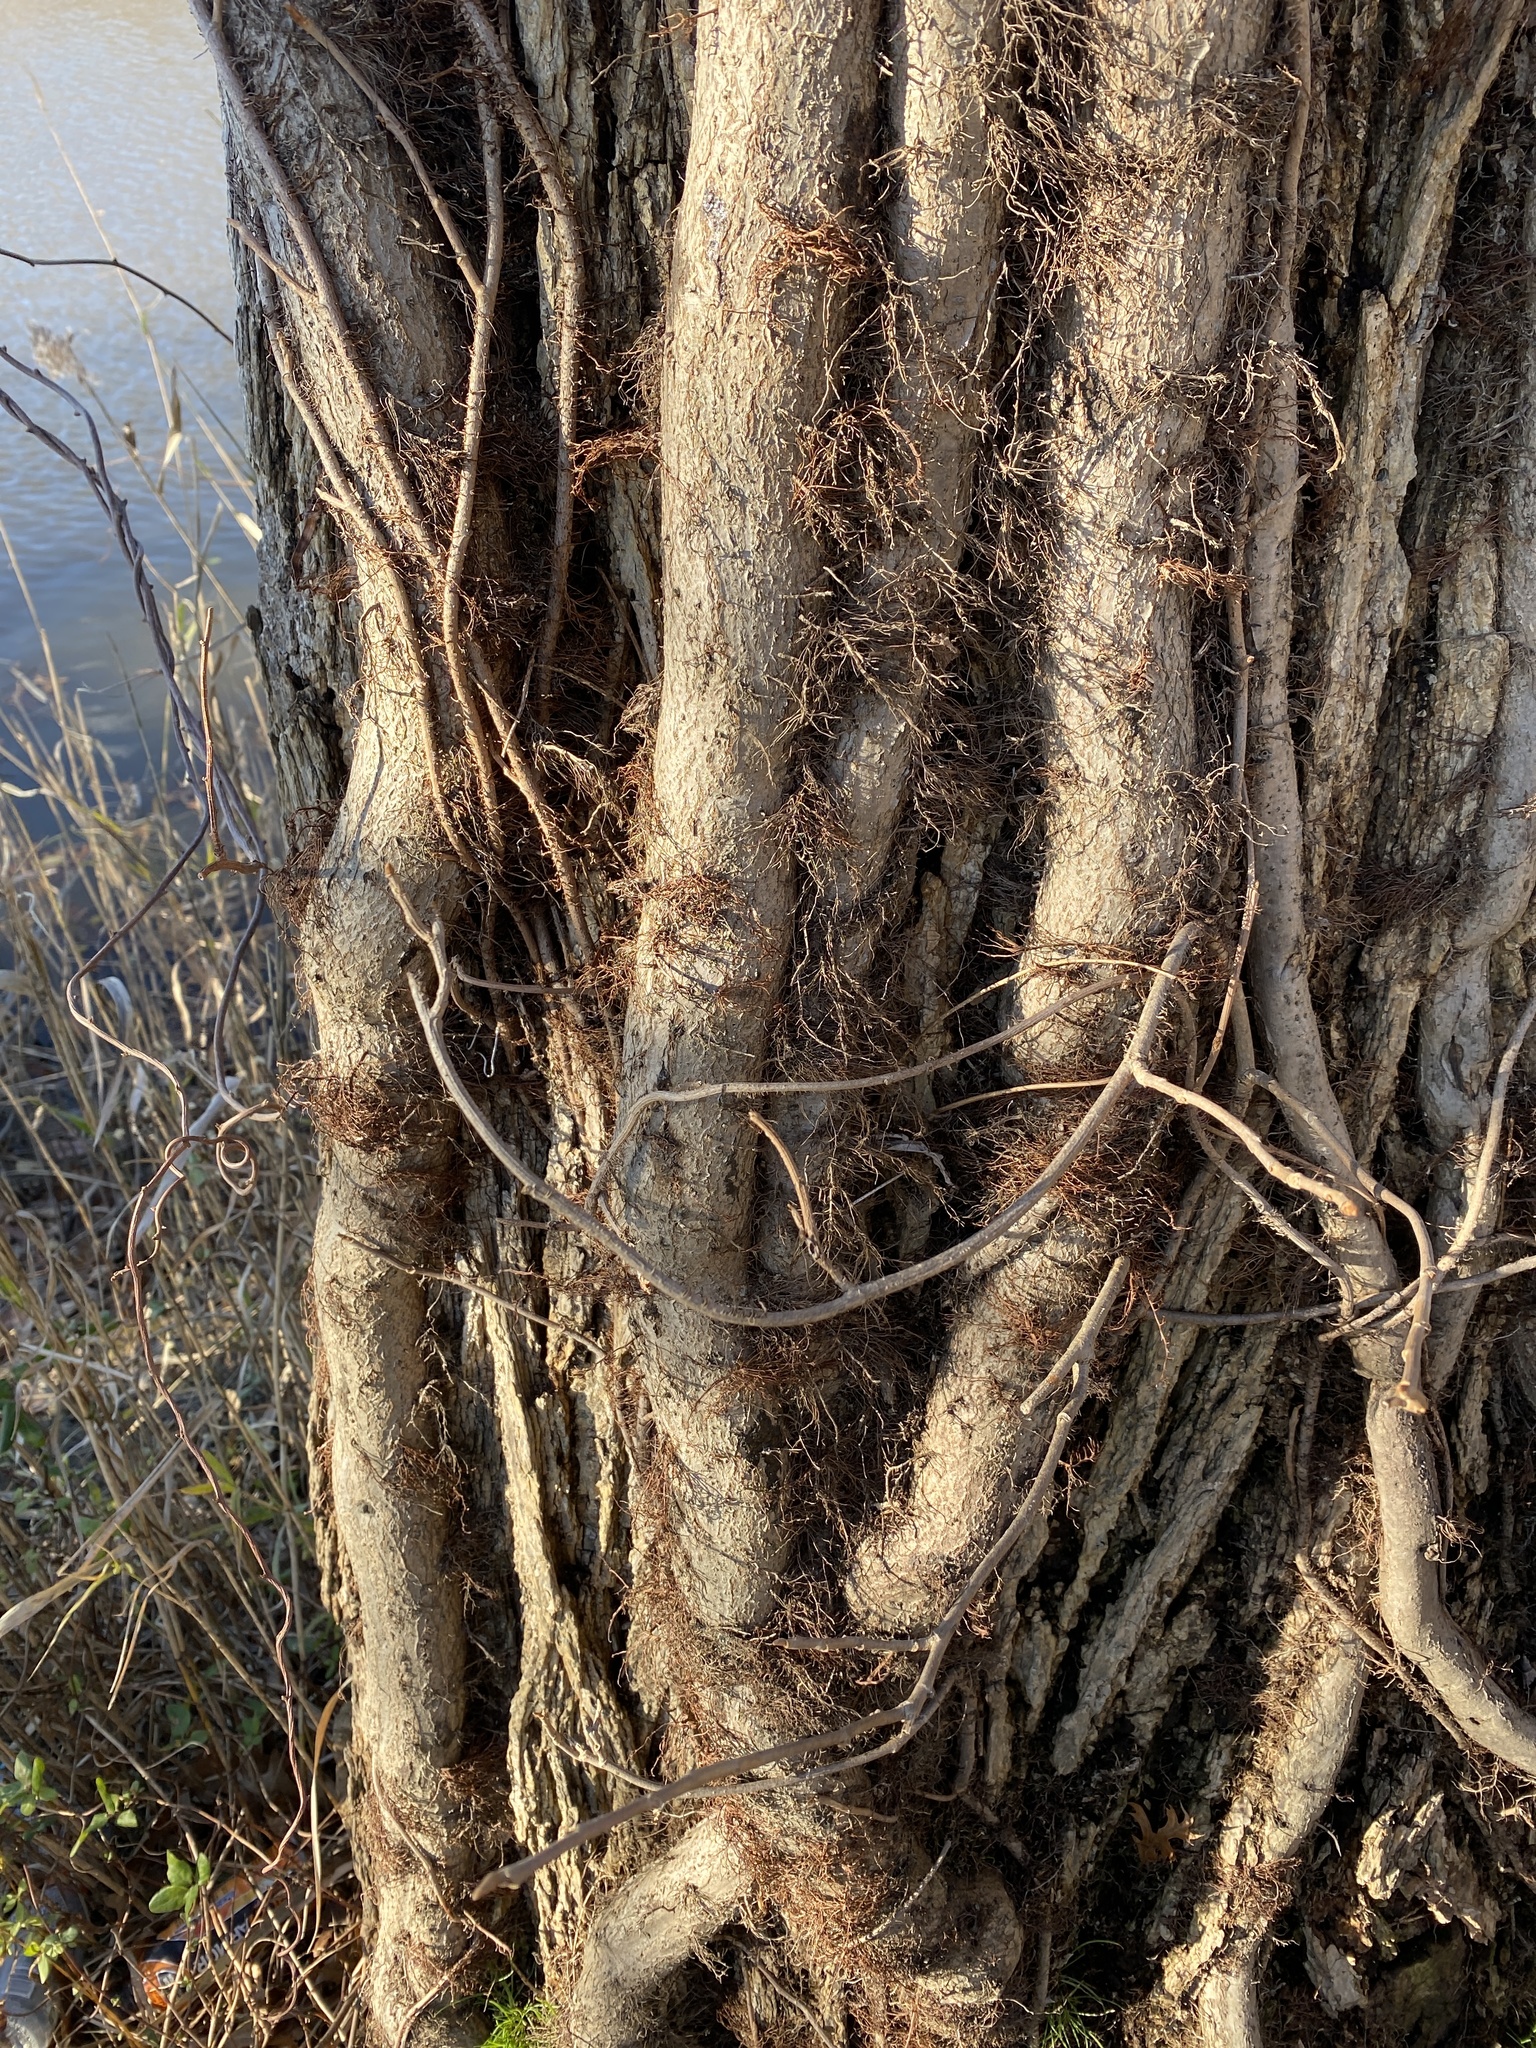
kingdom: Plantae
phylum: Tracheophyta
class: Magnoliopsida
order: Sapindales
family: Anacardiaceae
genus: Toxicodendron
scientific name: Toxicodendron radicans
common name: Poison ivy
